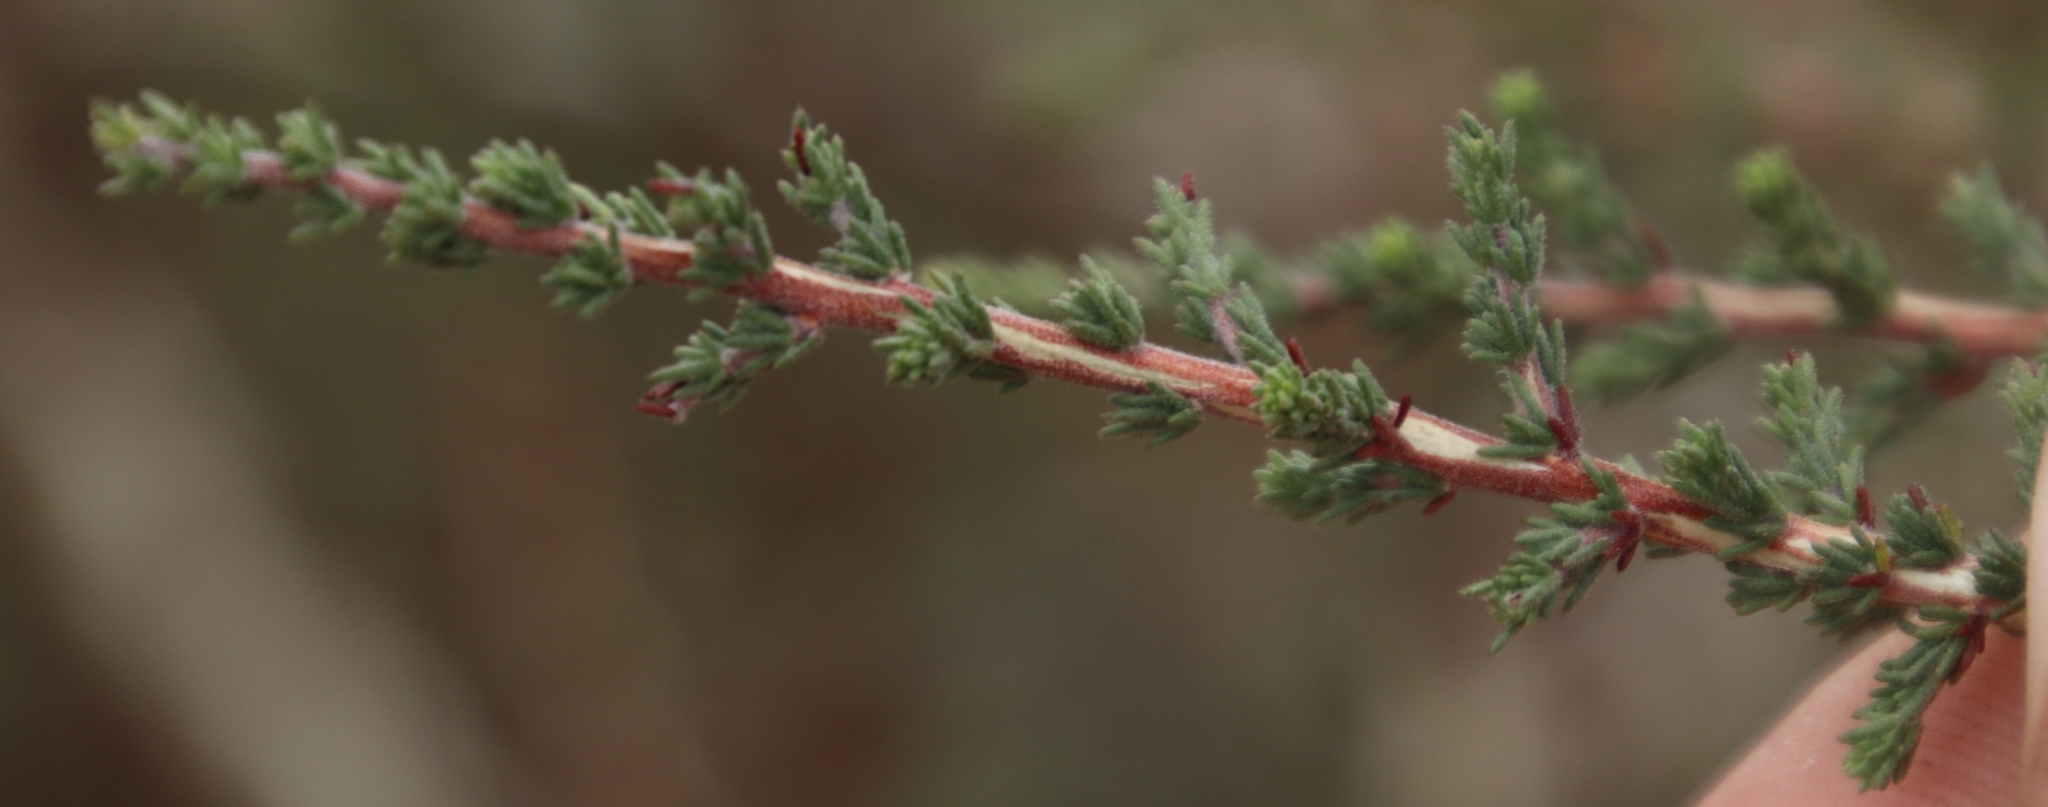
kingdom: Plantae
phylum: Tracheophyta
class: Magnoliopsida
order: Fabales
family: Fabaceae
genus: Aspalathus
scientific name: Aspalathus hispida
